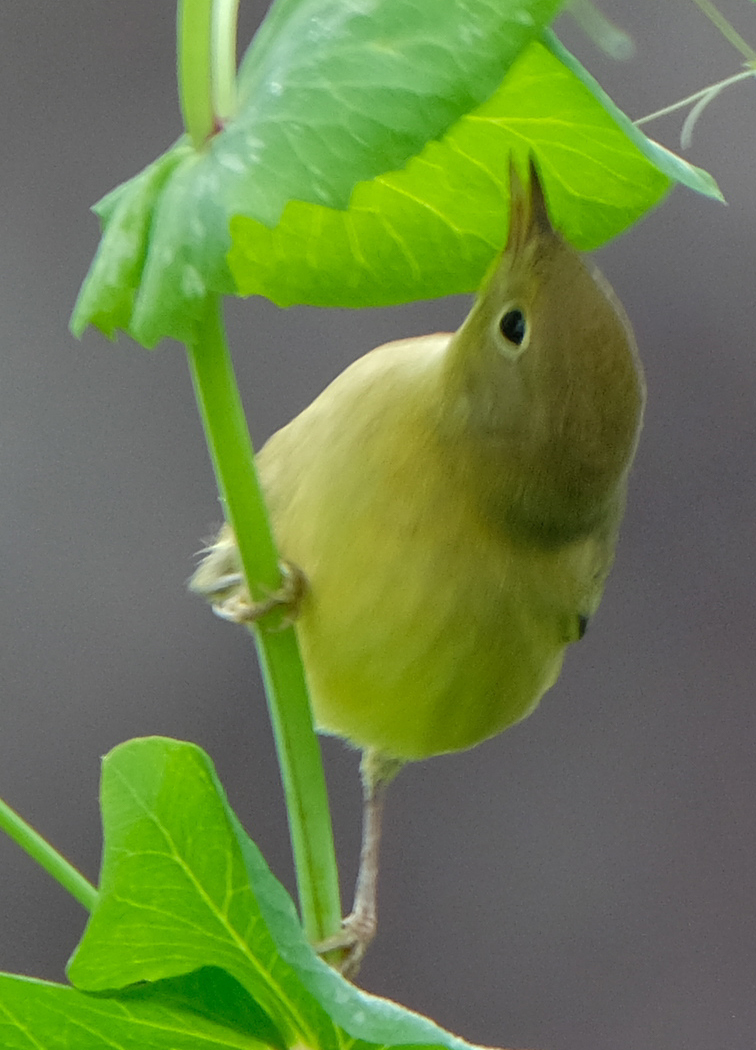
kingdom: Animalia
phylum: Chordata
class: Aves
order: Passeriformes
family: Parulidae
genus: Setophaga
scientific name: Setophaga petechia
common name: Yellow warbler
